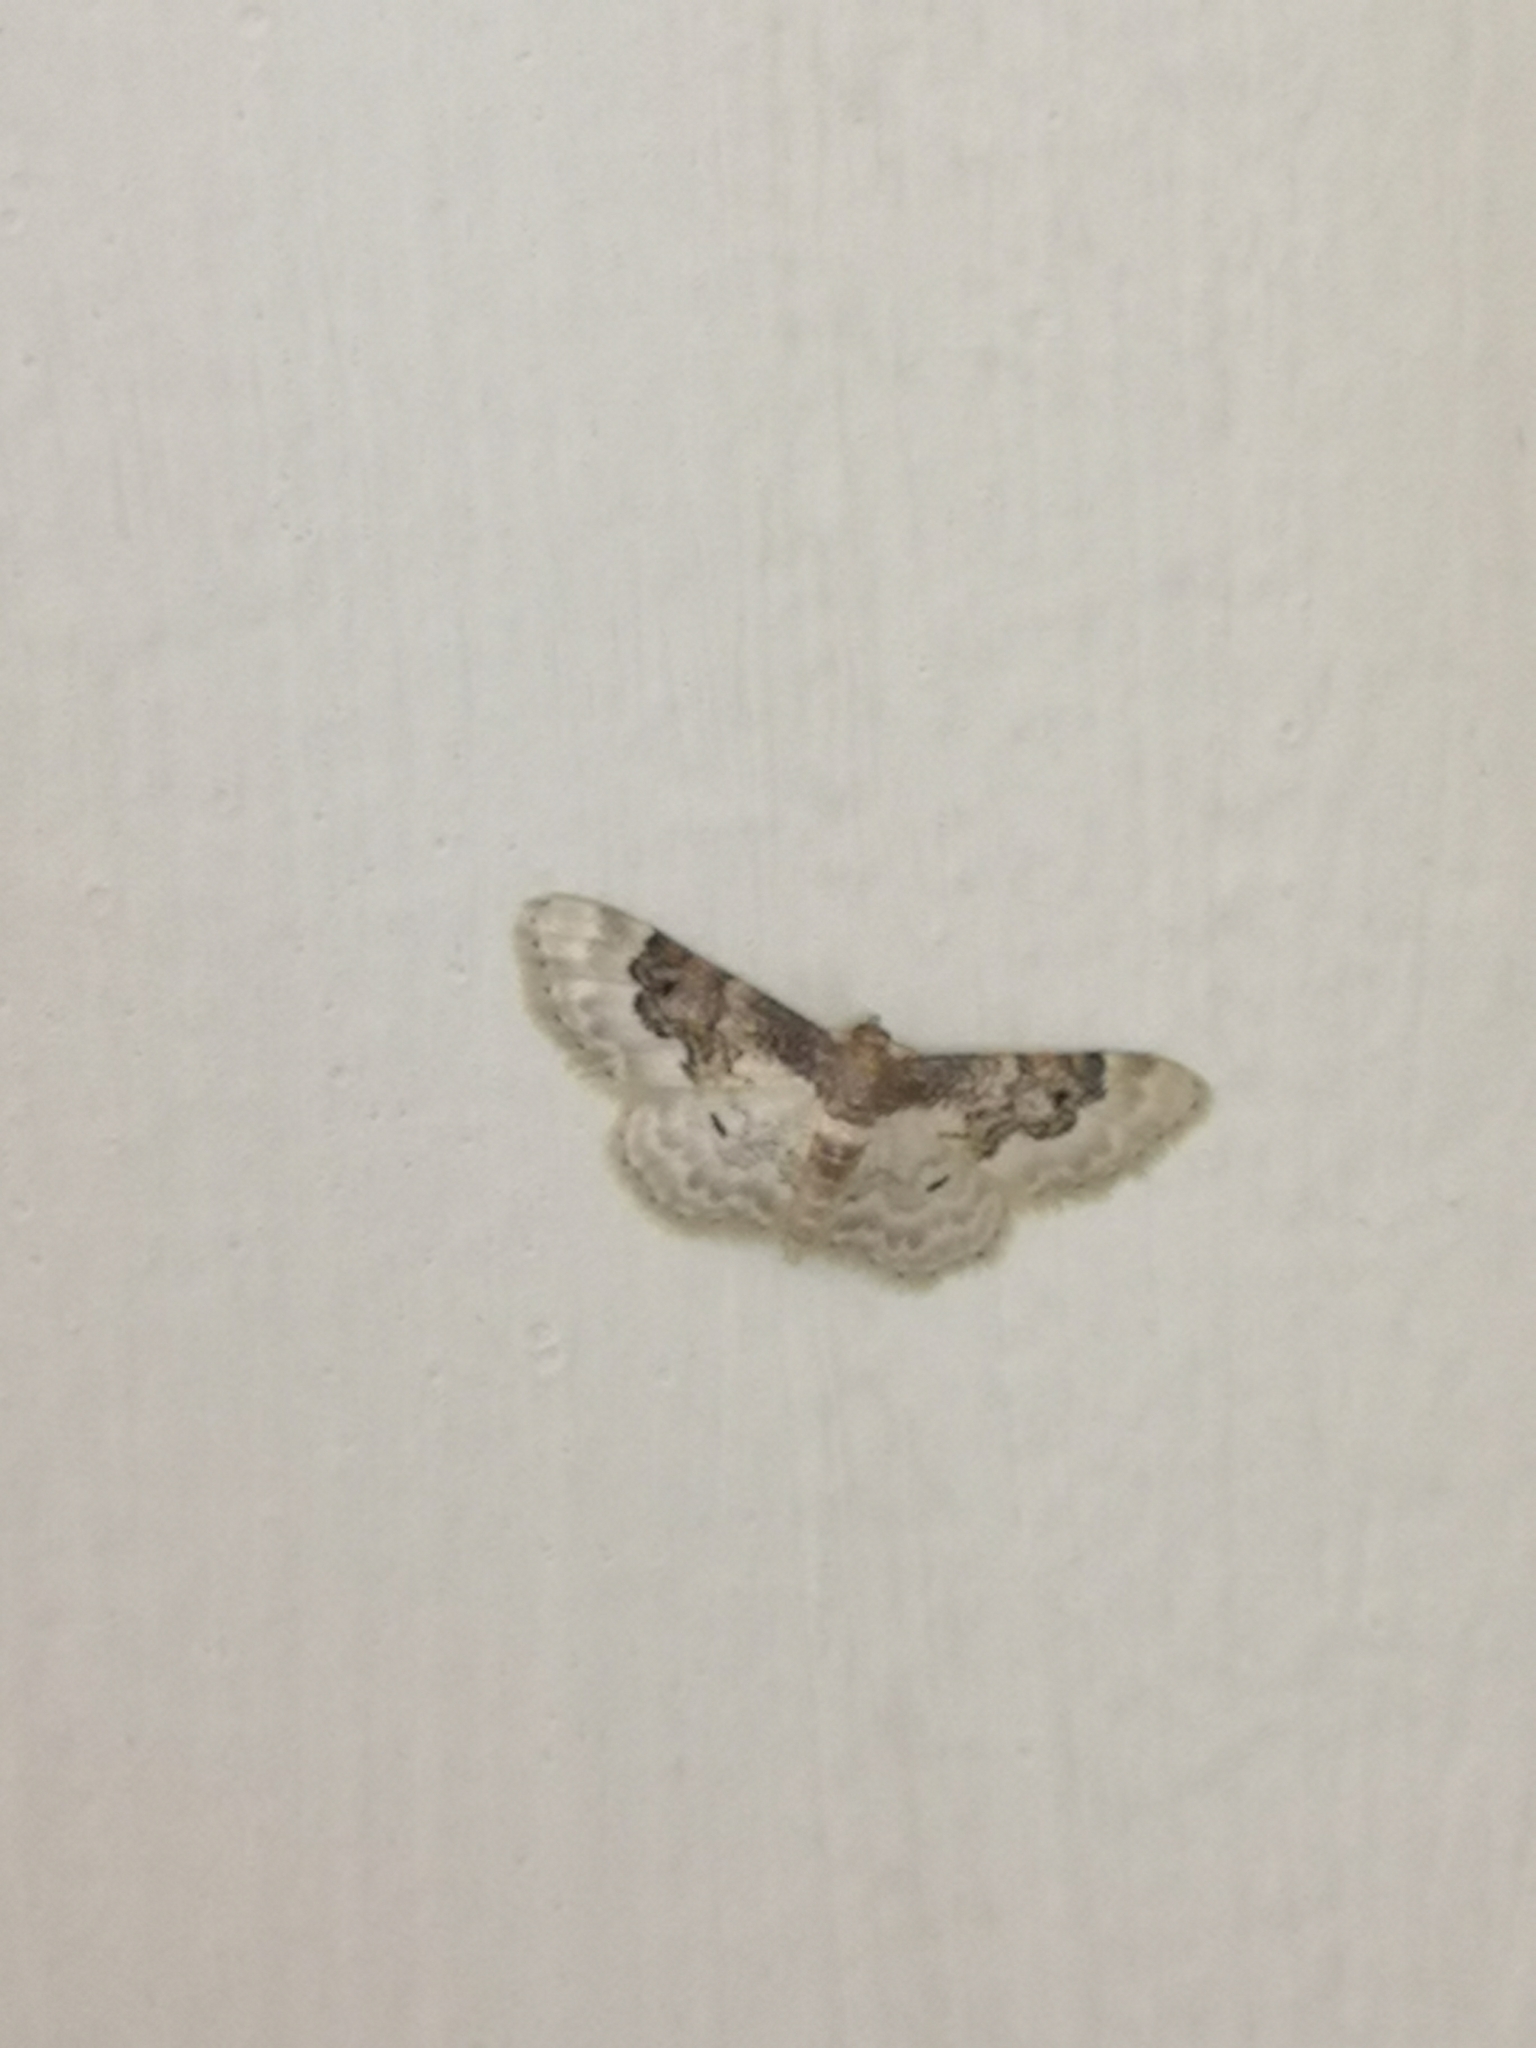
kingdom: Animalia
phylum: Arthropoda
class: Insecta
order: Lepidoptera
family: Geometridae
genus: Idaea
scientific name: Idaea rusticata
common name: Least carpet
